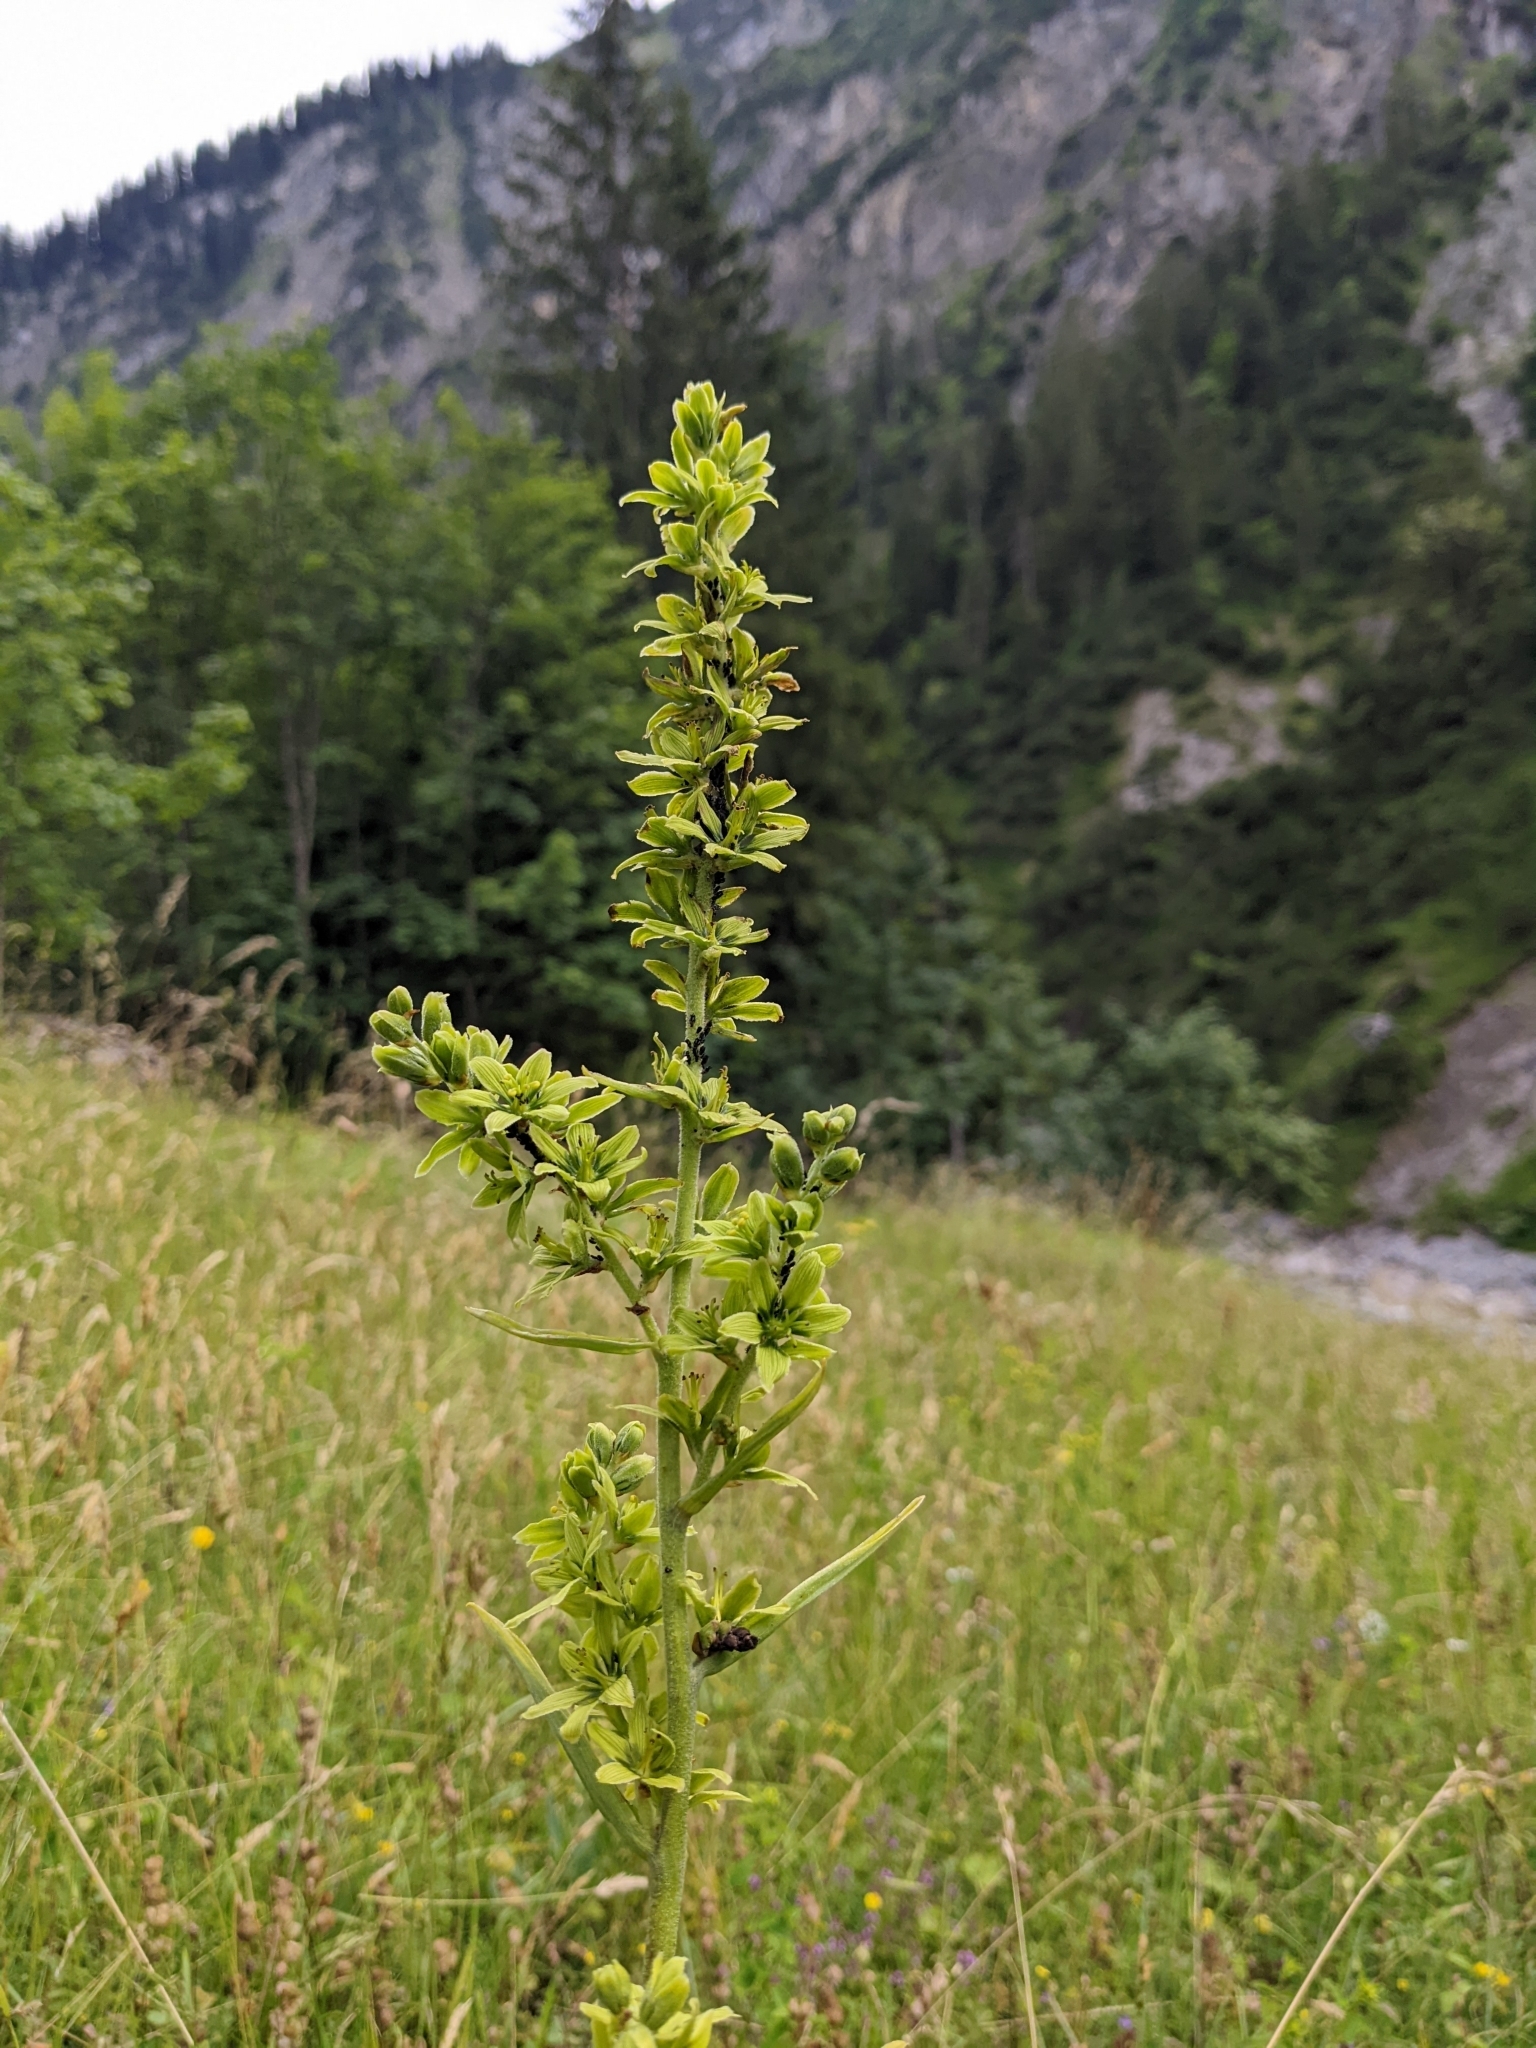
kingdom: Plantae
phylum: Tracheophyta
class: Liliopsida
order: Liliales
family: Melanthiaceae
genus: Veratrum
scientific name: Veratrum lobelianum
